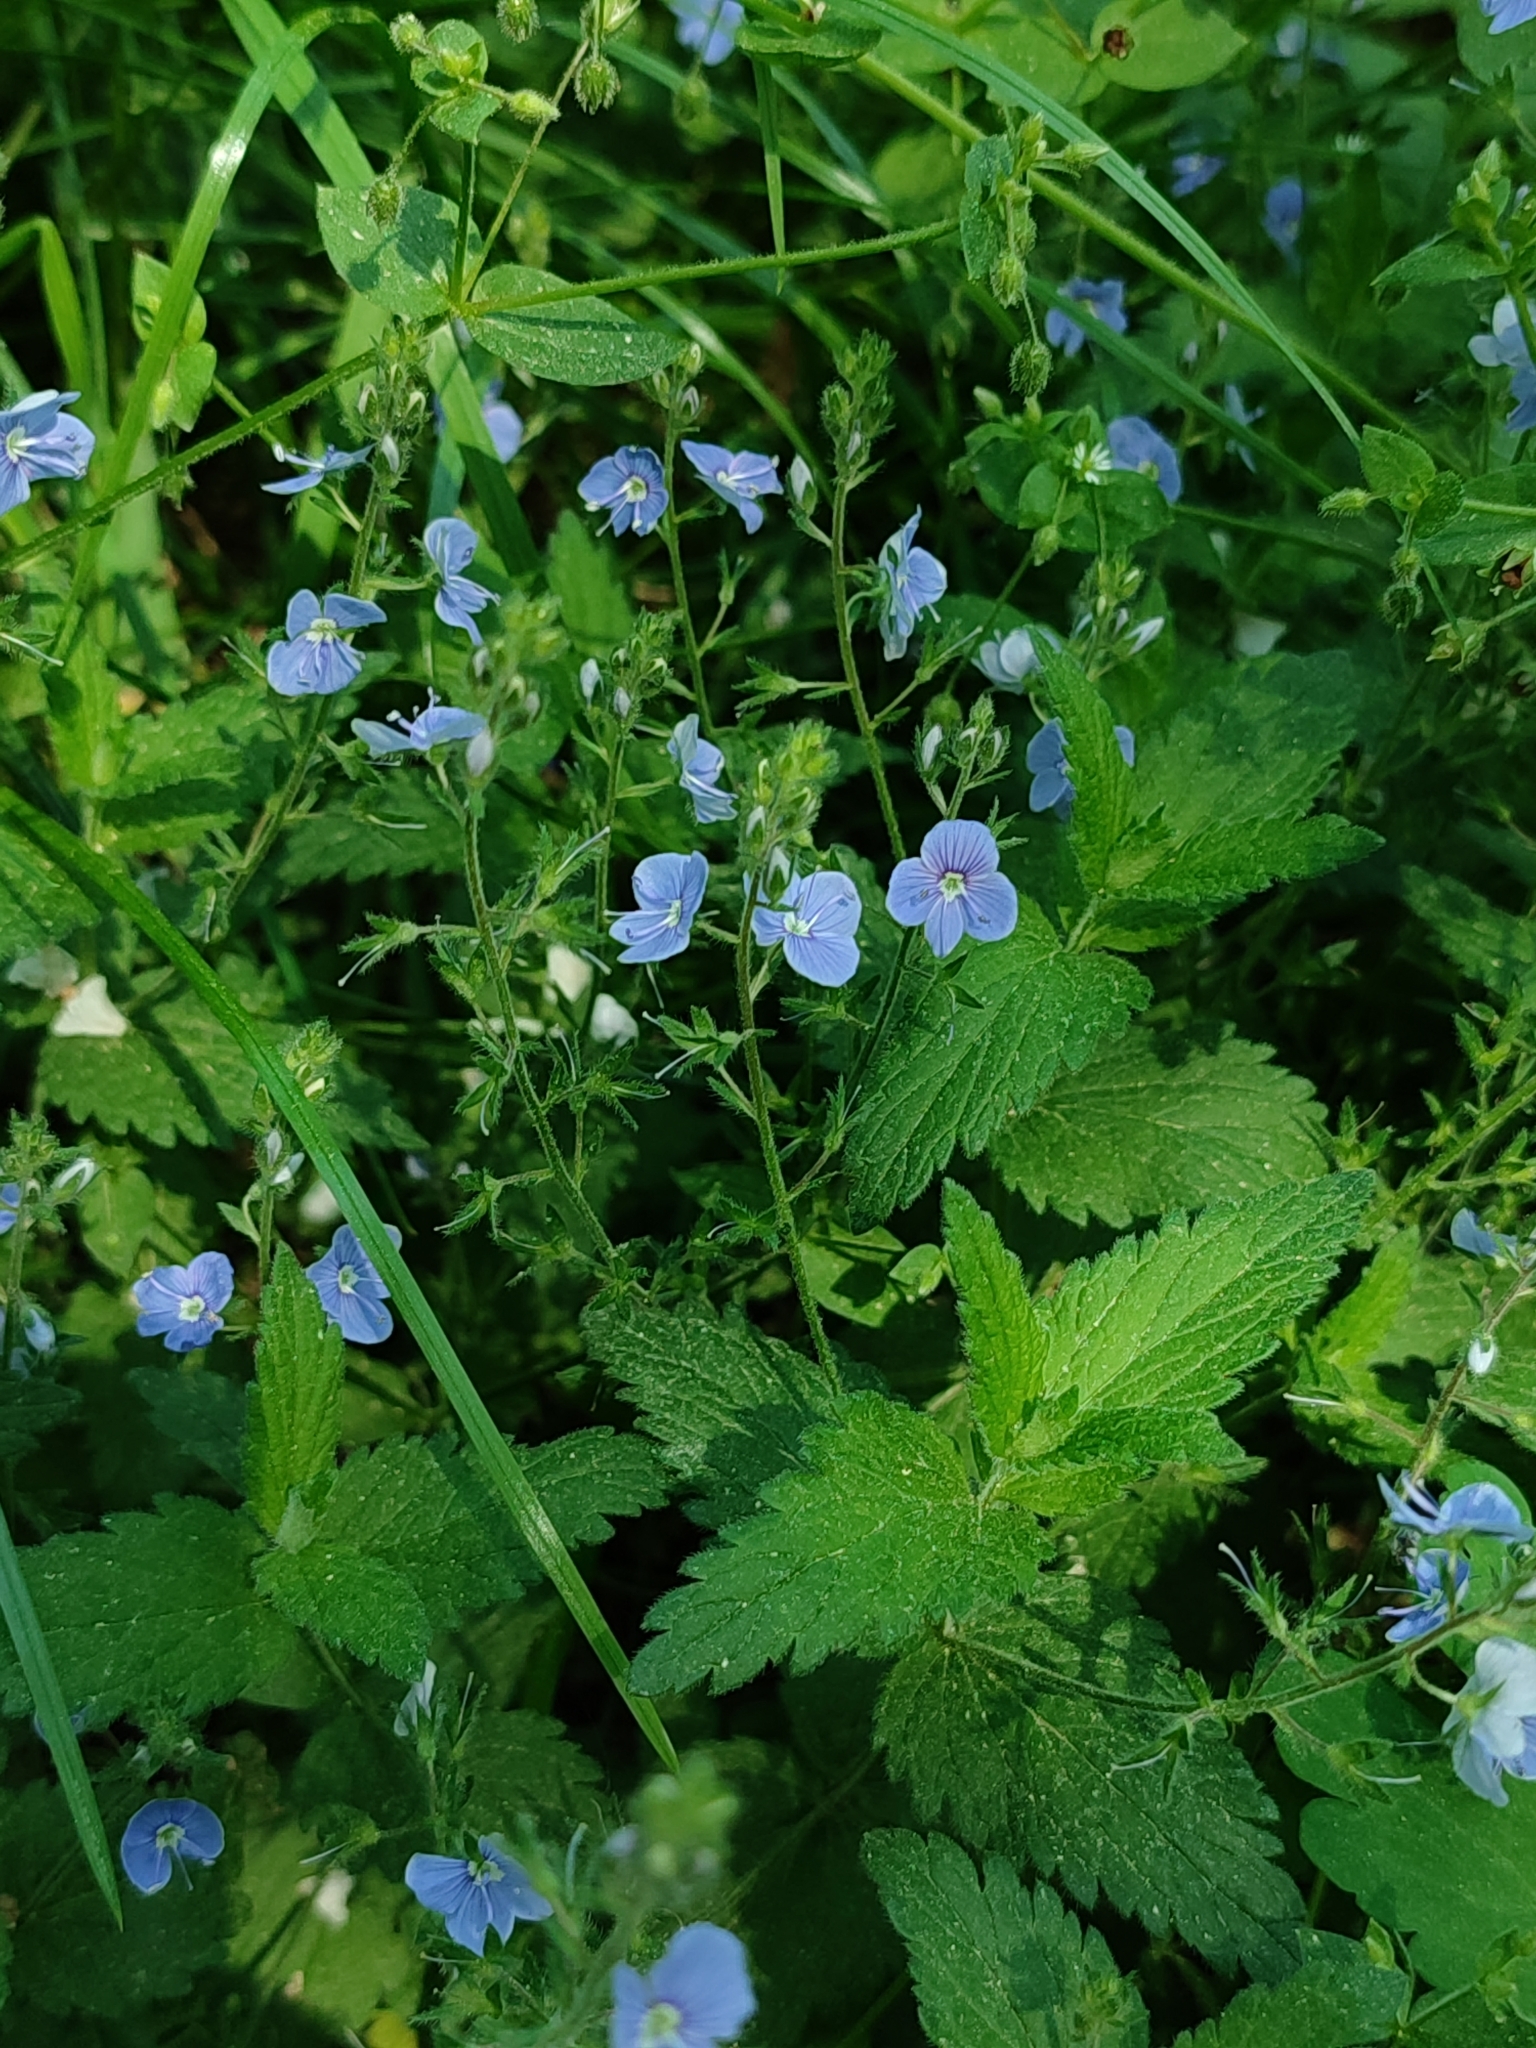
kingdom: Plantae
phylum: Tracheophyta
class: Magnoliopsida
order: Lamiales
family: Plantaginaceae
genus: Veronica
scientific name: Veronica chamaedrys
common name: Germander speedwell
